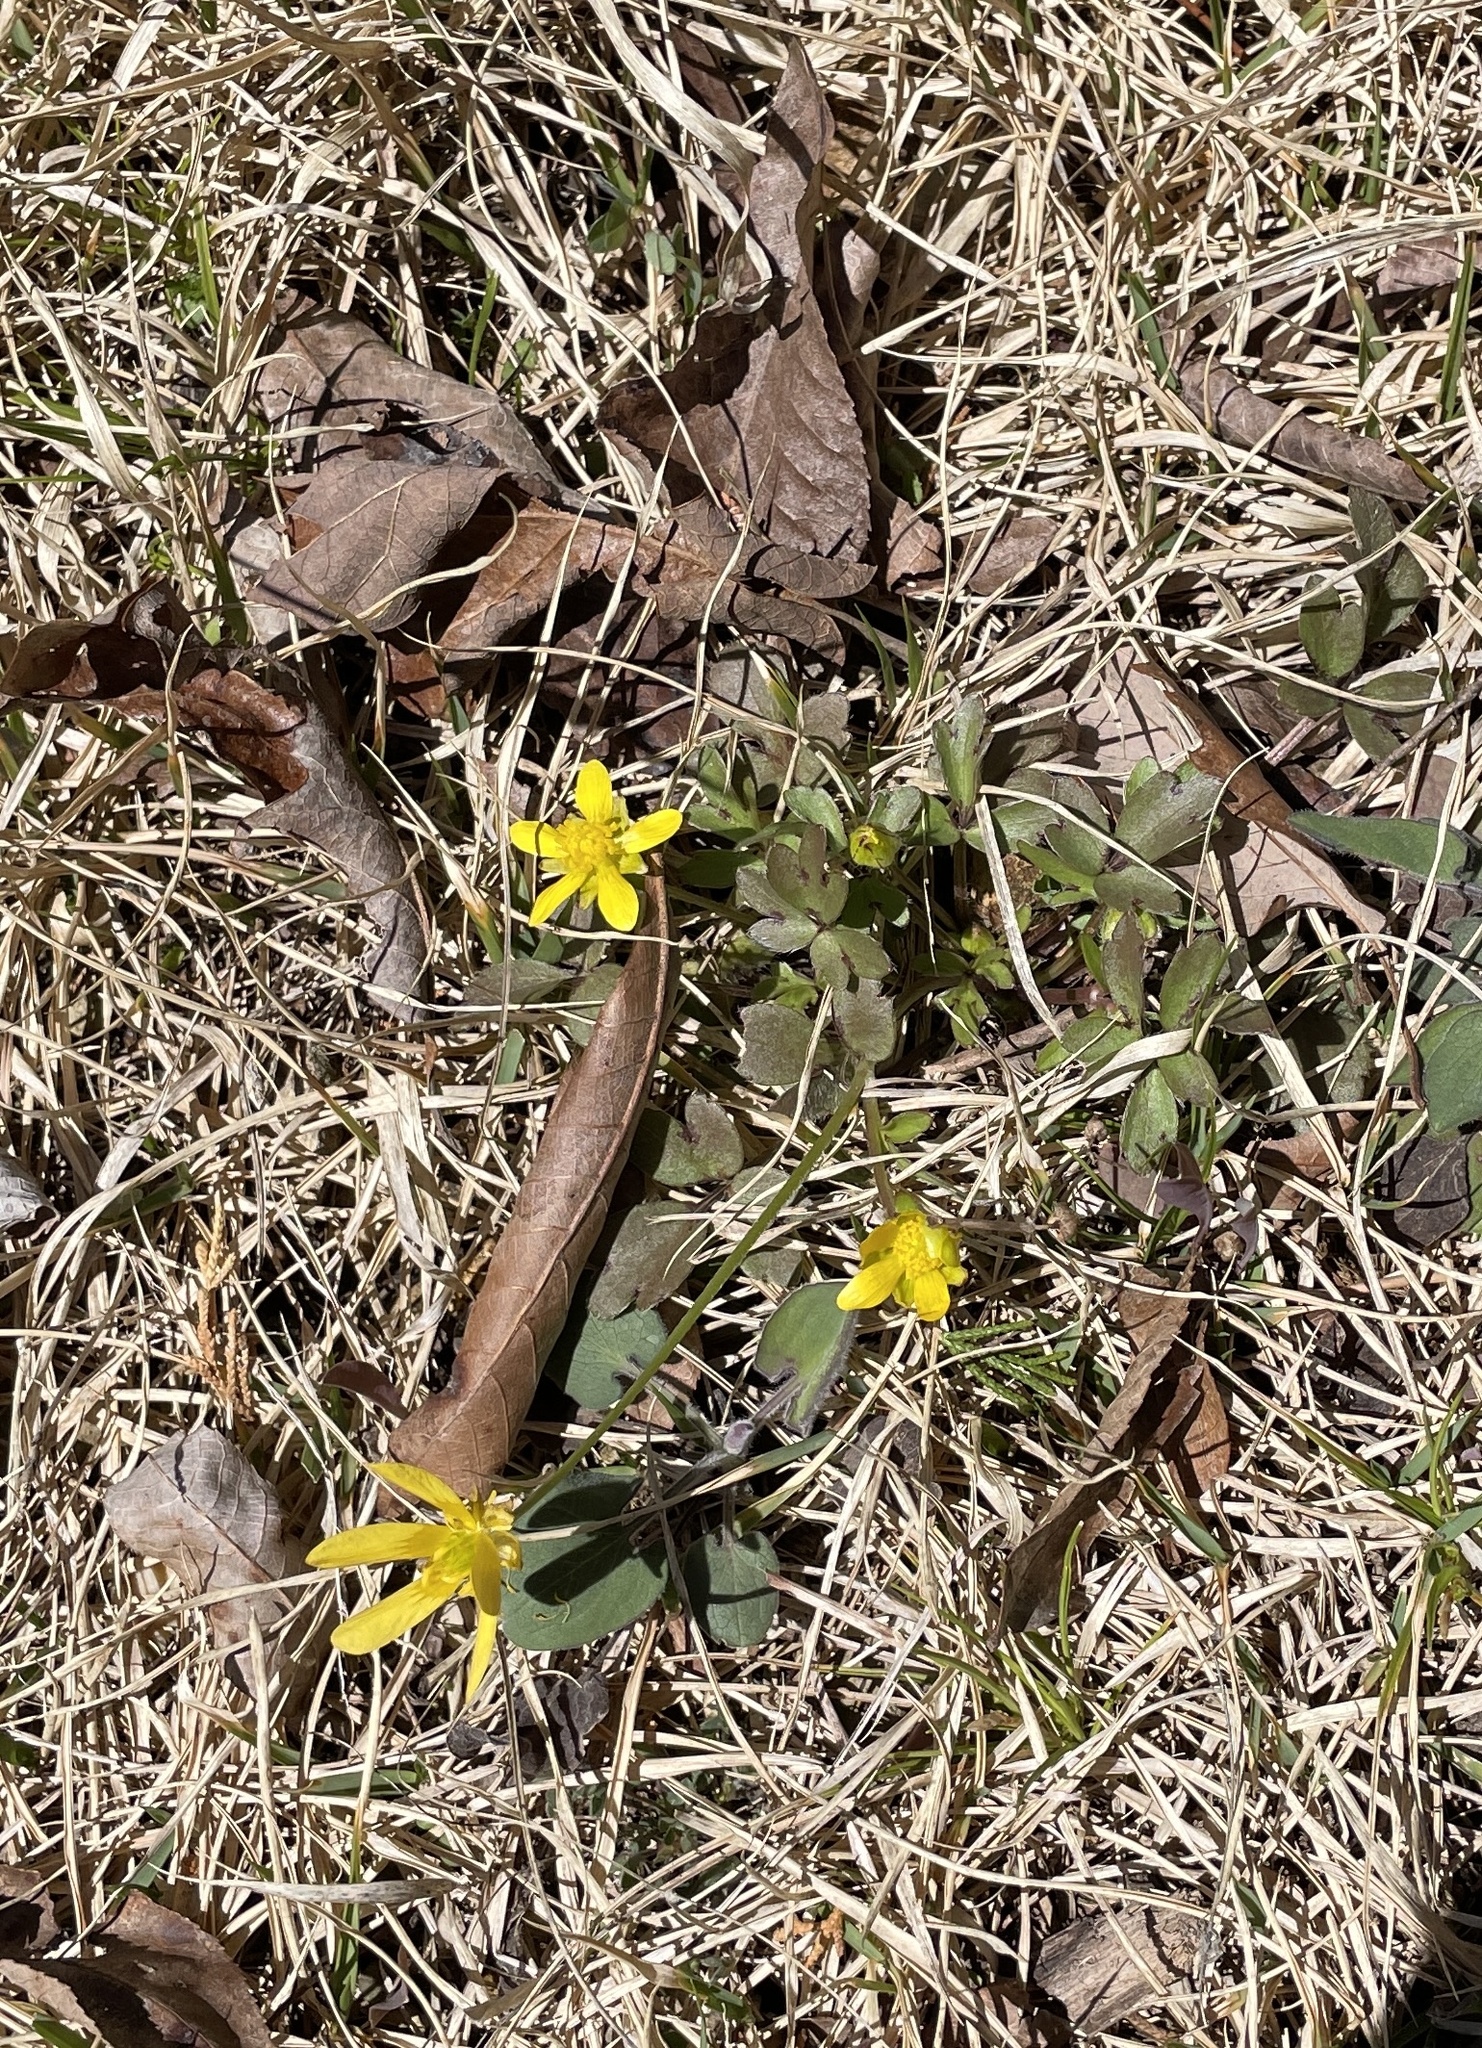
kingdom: Plantae
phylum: Tracheophyta
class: Magnoliopsida
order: Ranunculales
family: Ranunculaceae
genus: Ranunculus
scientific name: Ranunculus fascicularis
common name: Early buttercup
